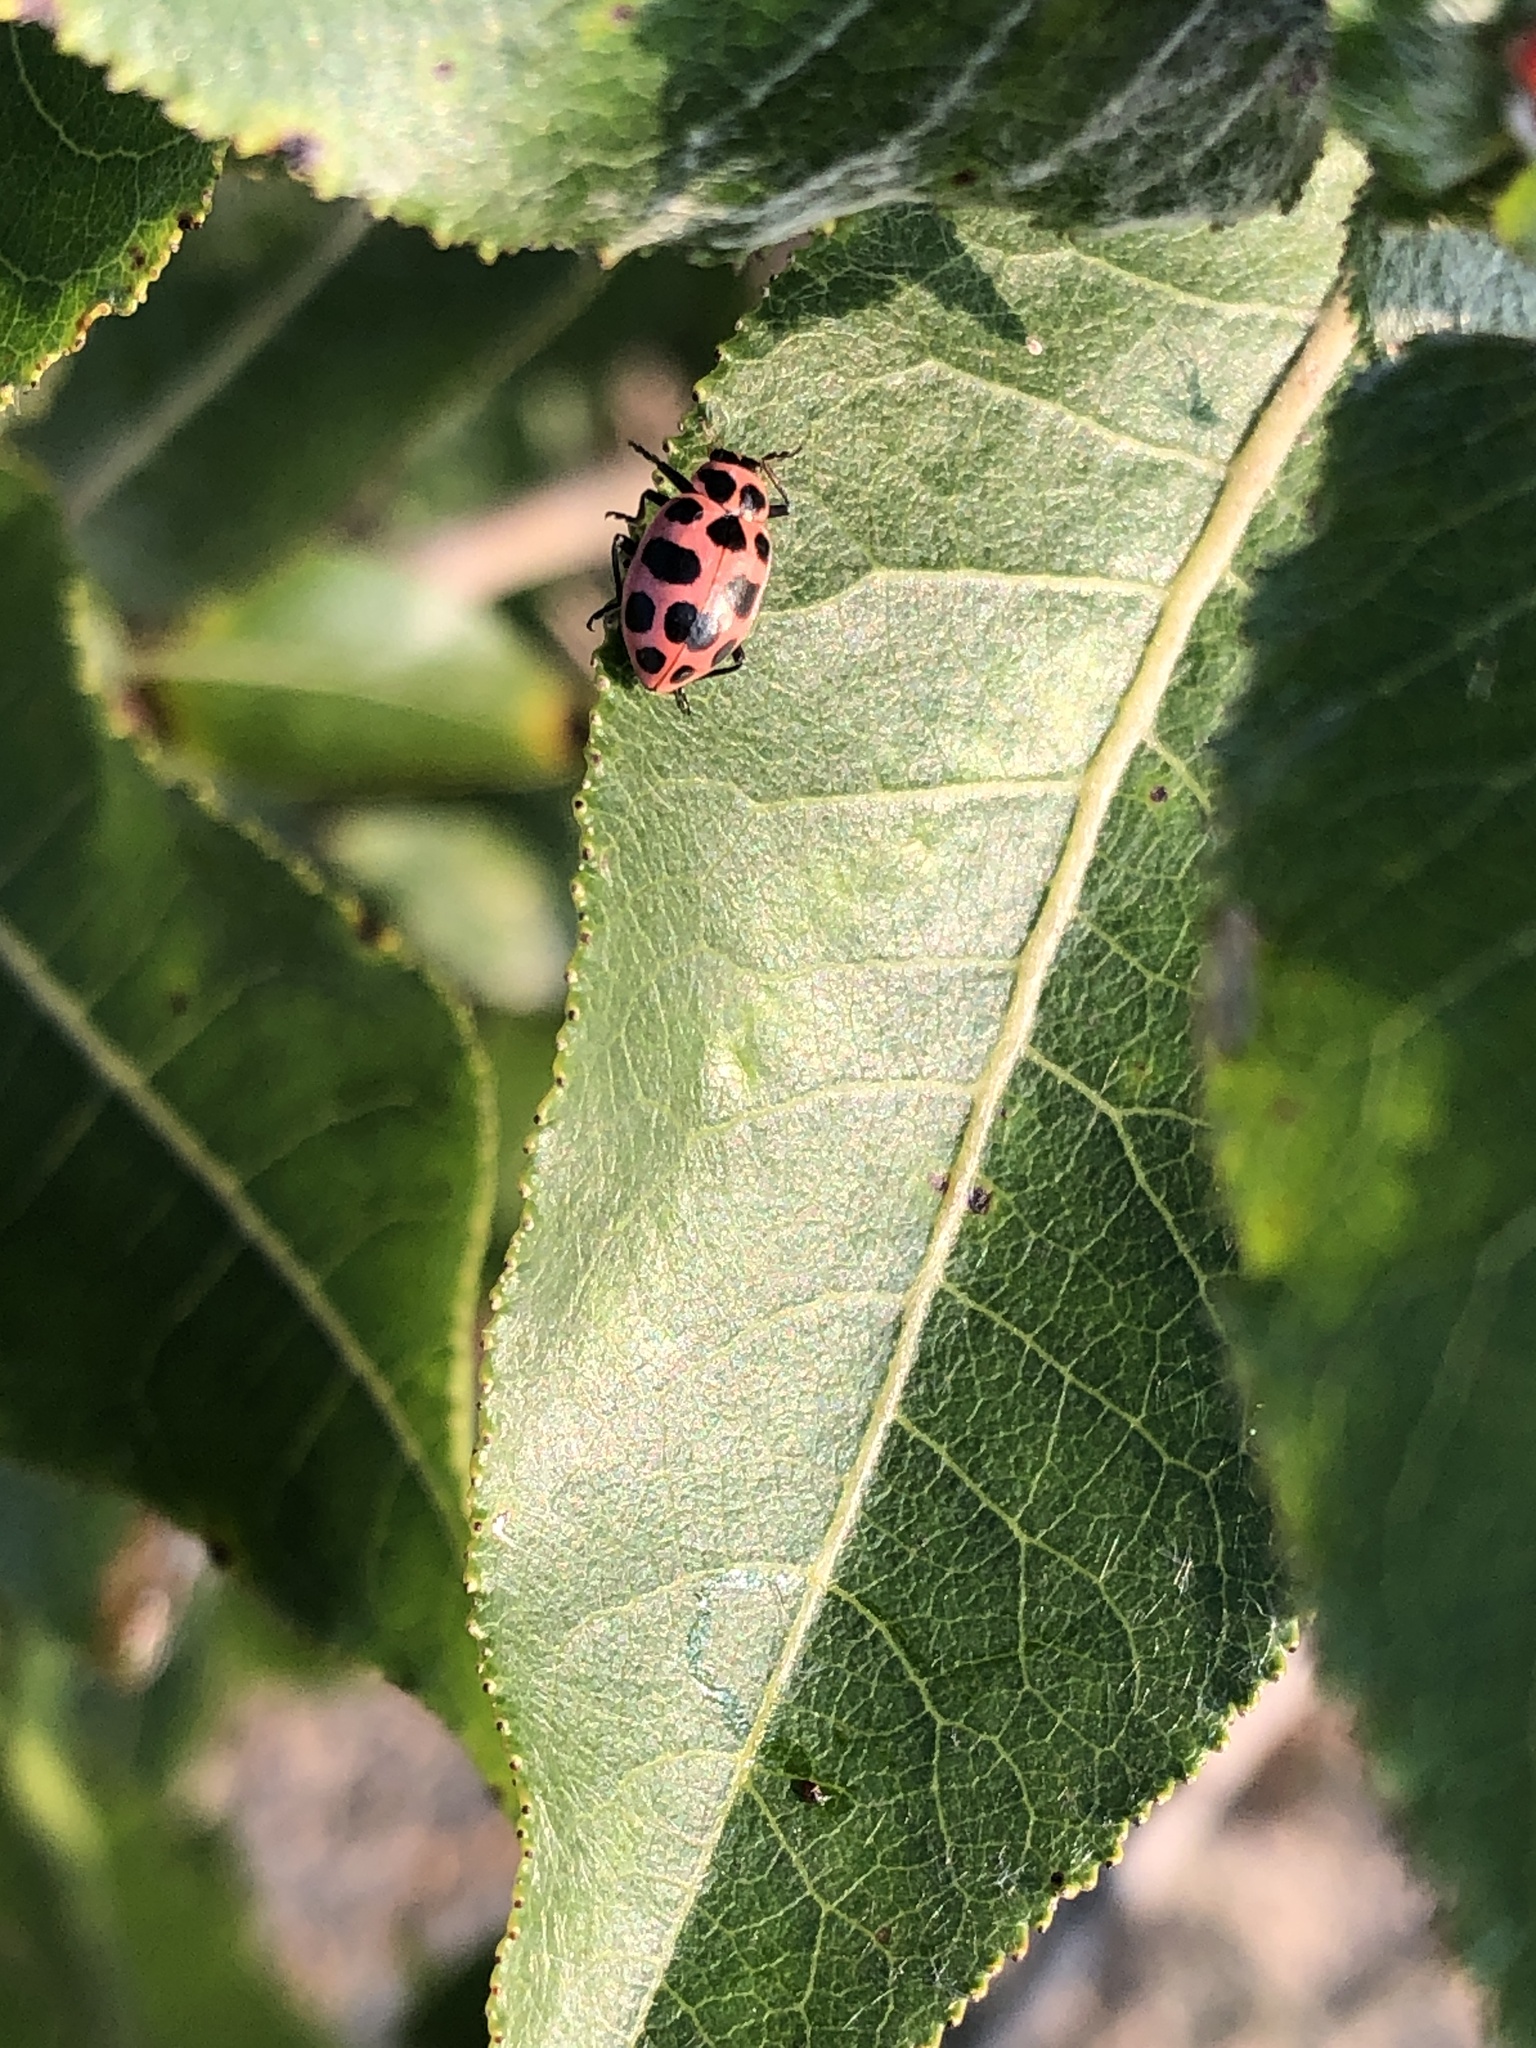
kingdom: Animalia
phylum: Arthropoda
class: Insecta
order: Coleoptera
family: Coccinellidae
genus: Coleomegilla
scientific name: Coleomegilla maculata
